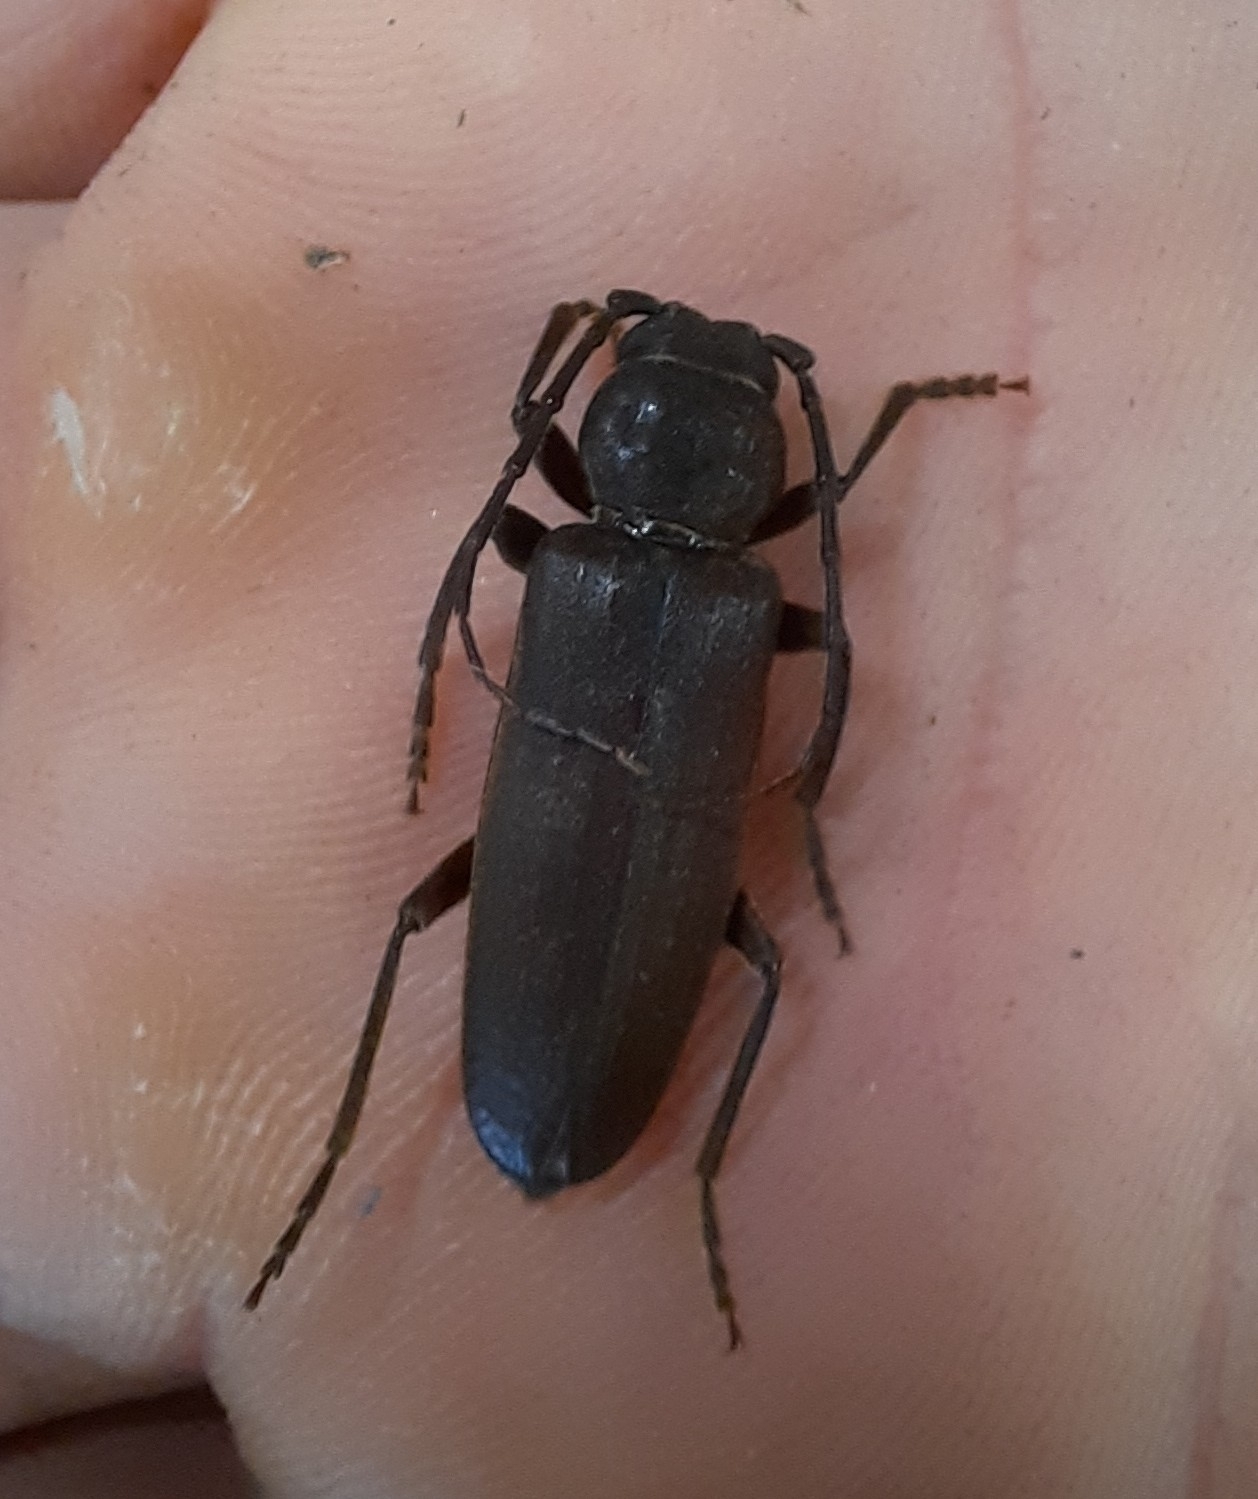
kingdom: Animalia
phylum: Arthropoda
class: Insecta
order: Coleoptera
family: Cerambycidae
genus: Arhopalus
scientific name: Arhopalus ferus
